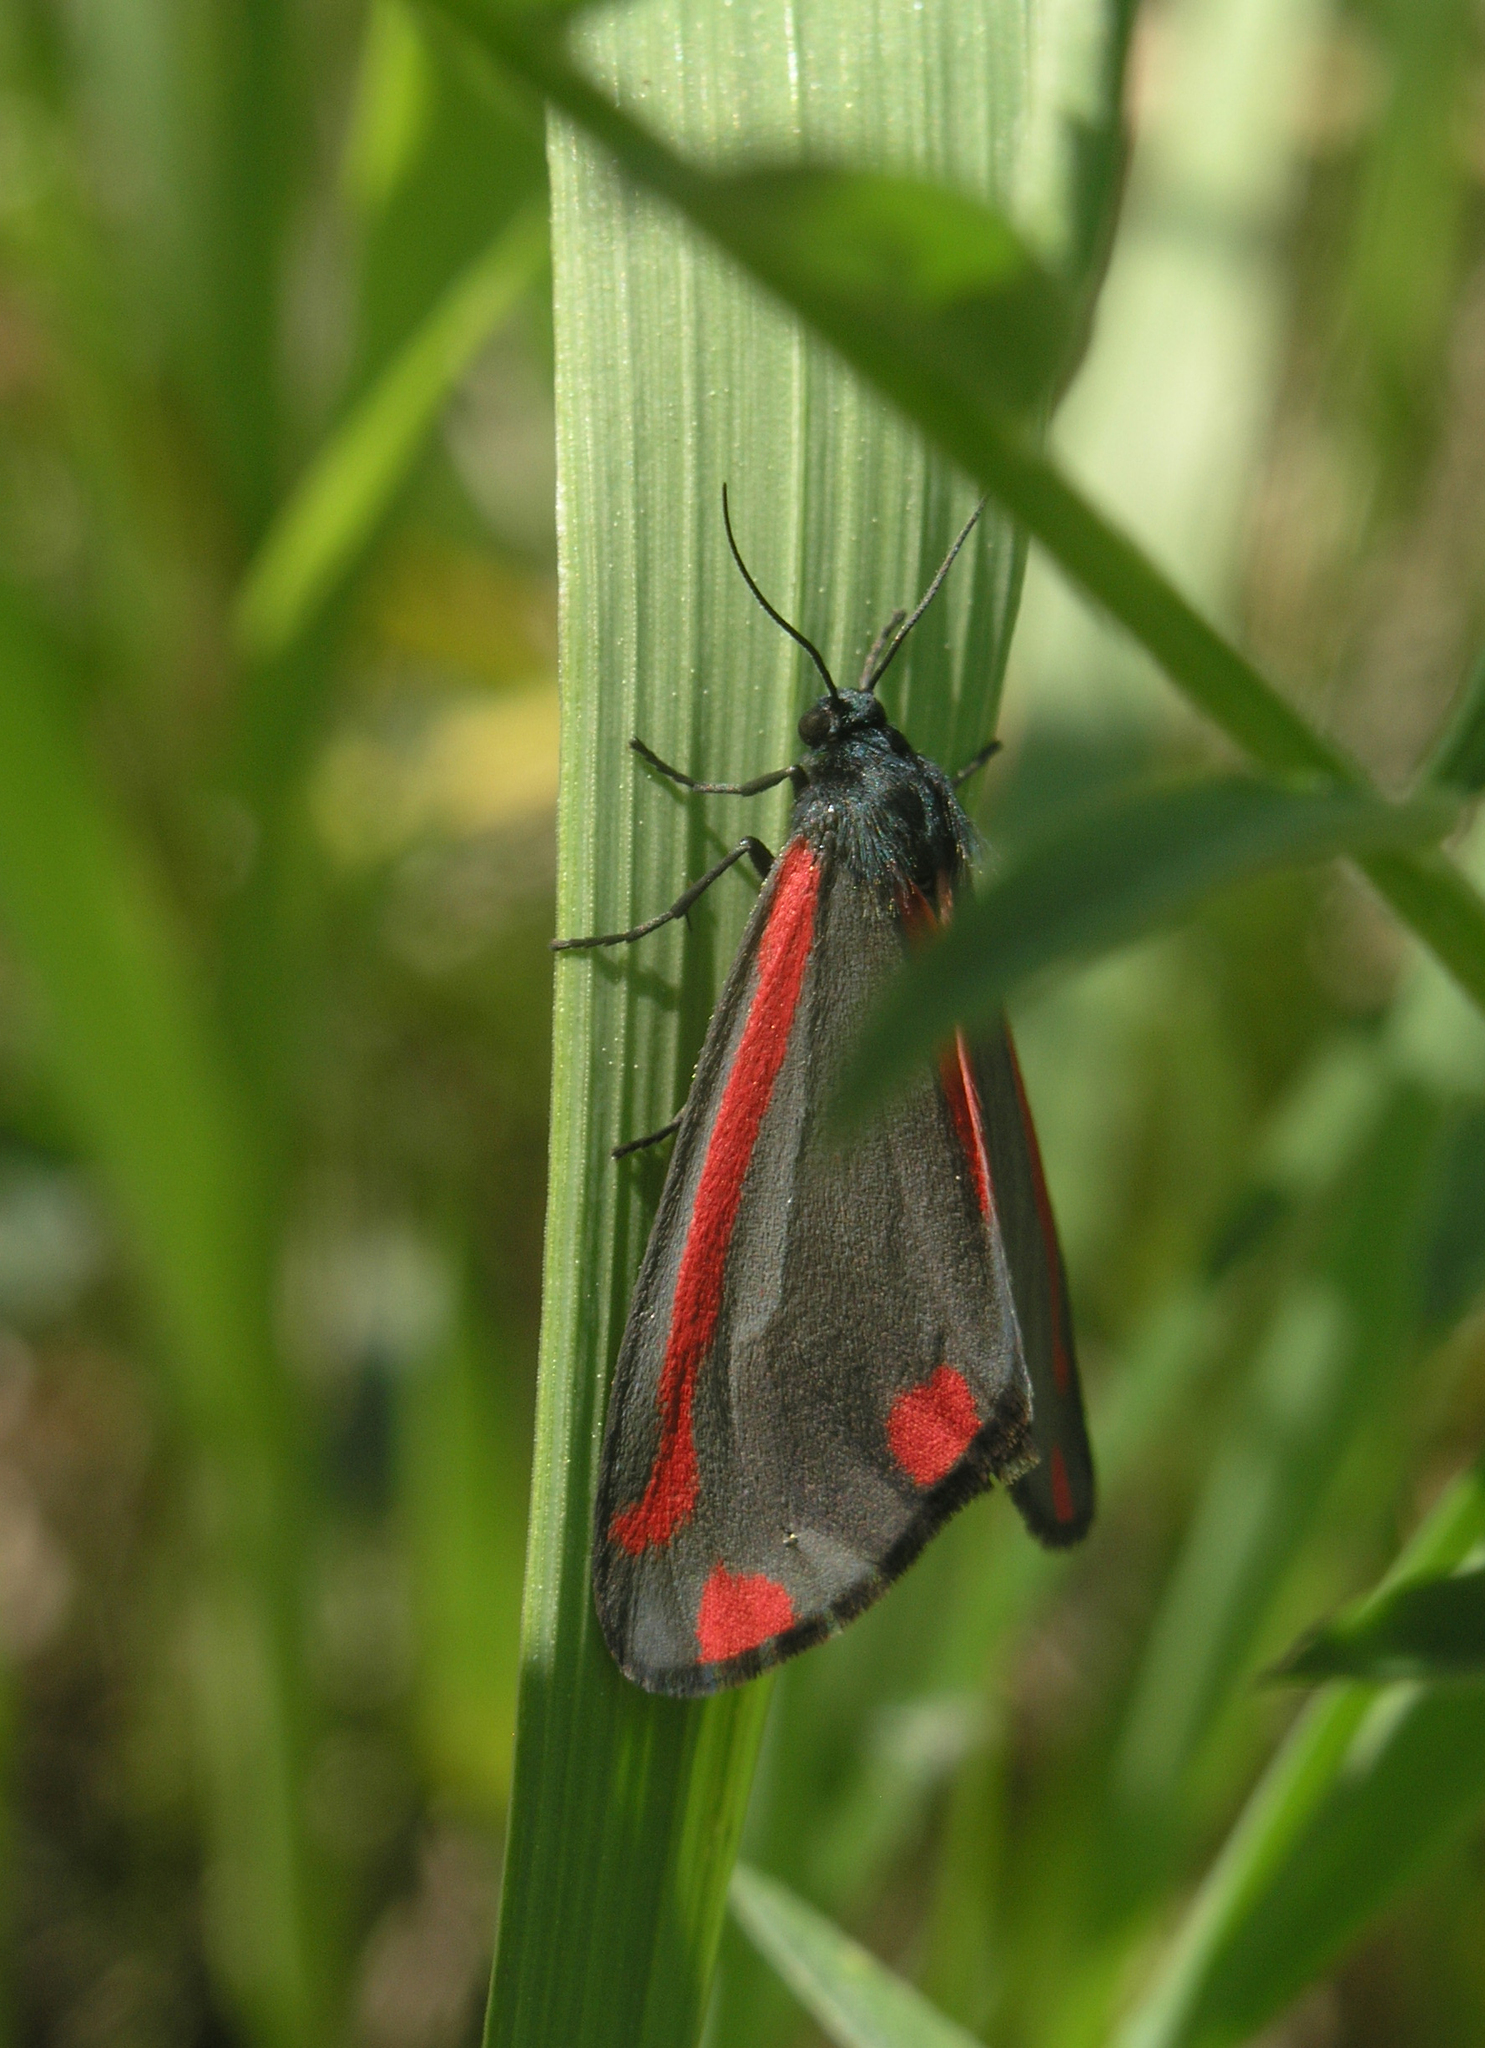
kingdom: Animalia
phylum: Arthropoda
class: Insecta
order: Lepidoptera
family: Erebidae
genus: Tyria
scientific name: Tyria jacobaeae
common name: Cinnabar
